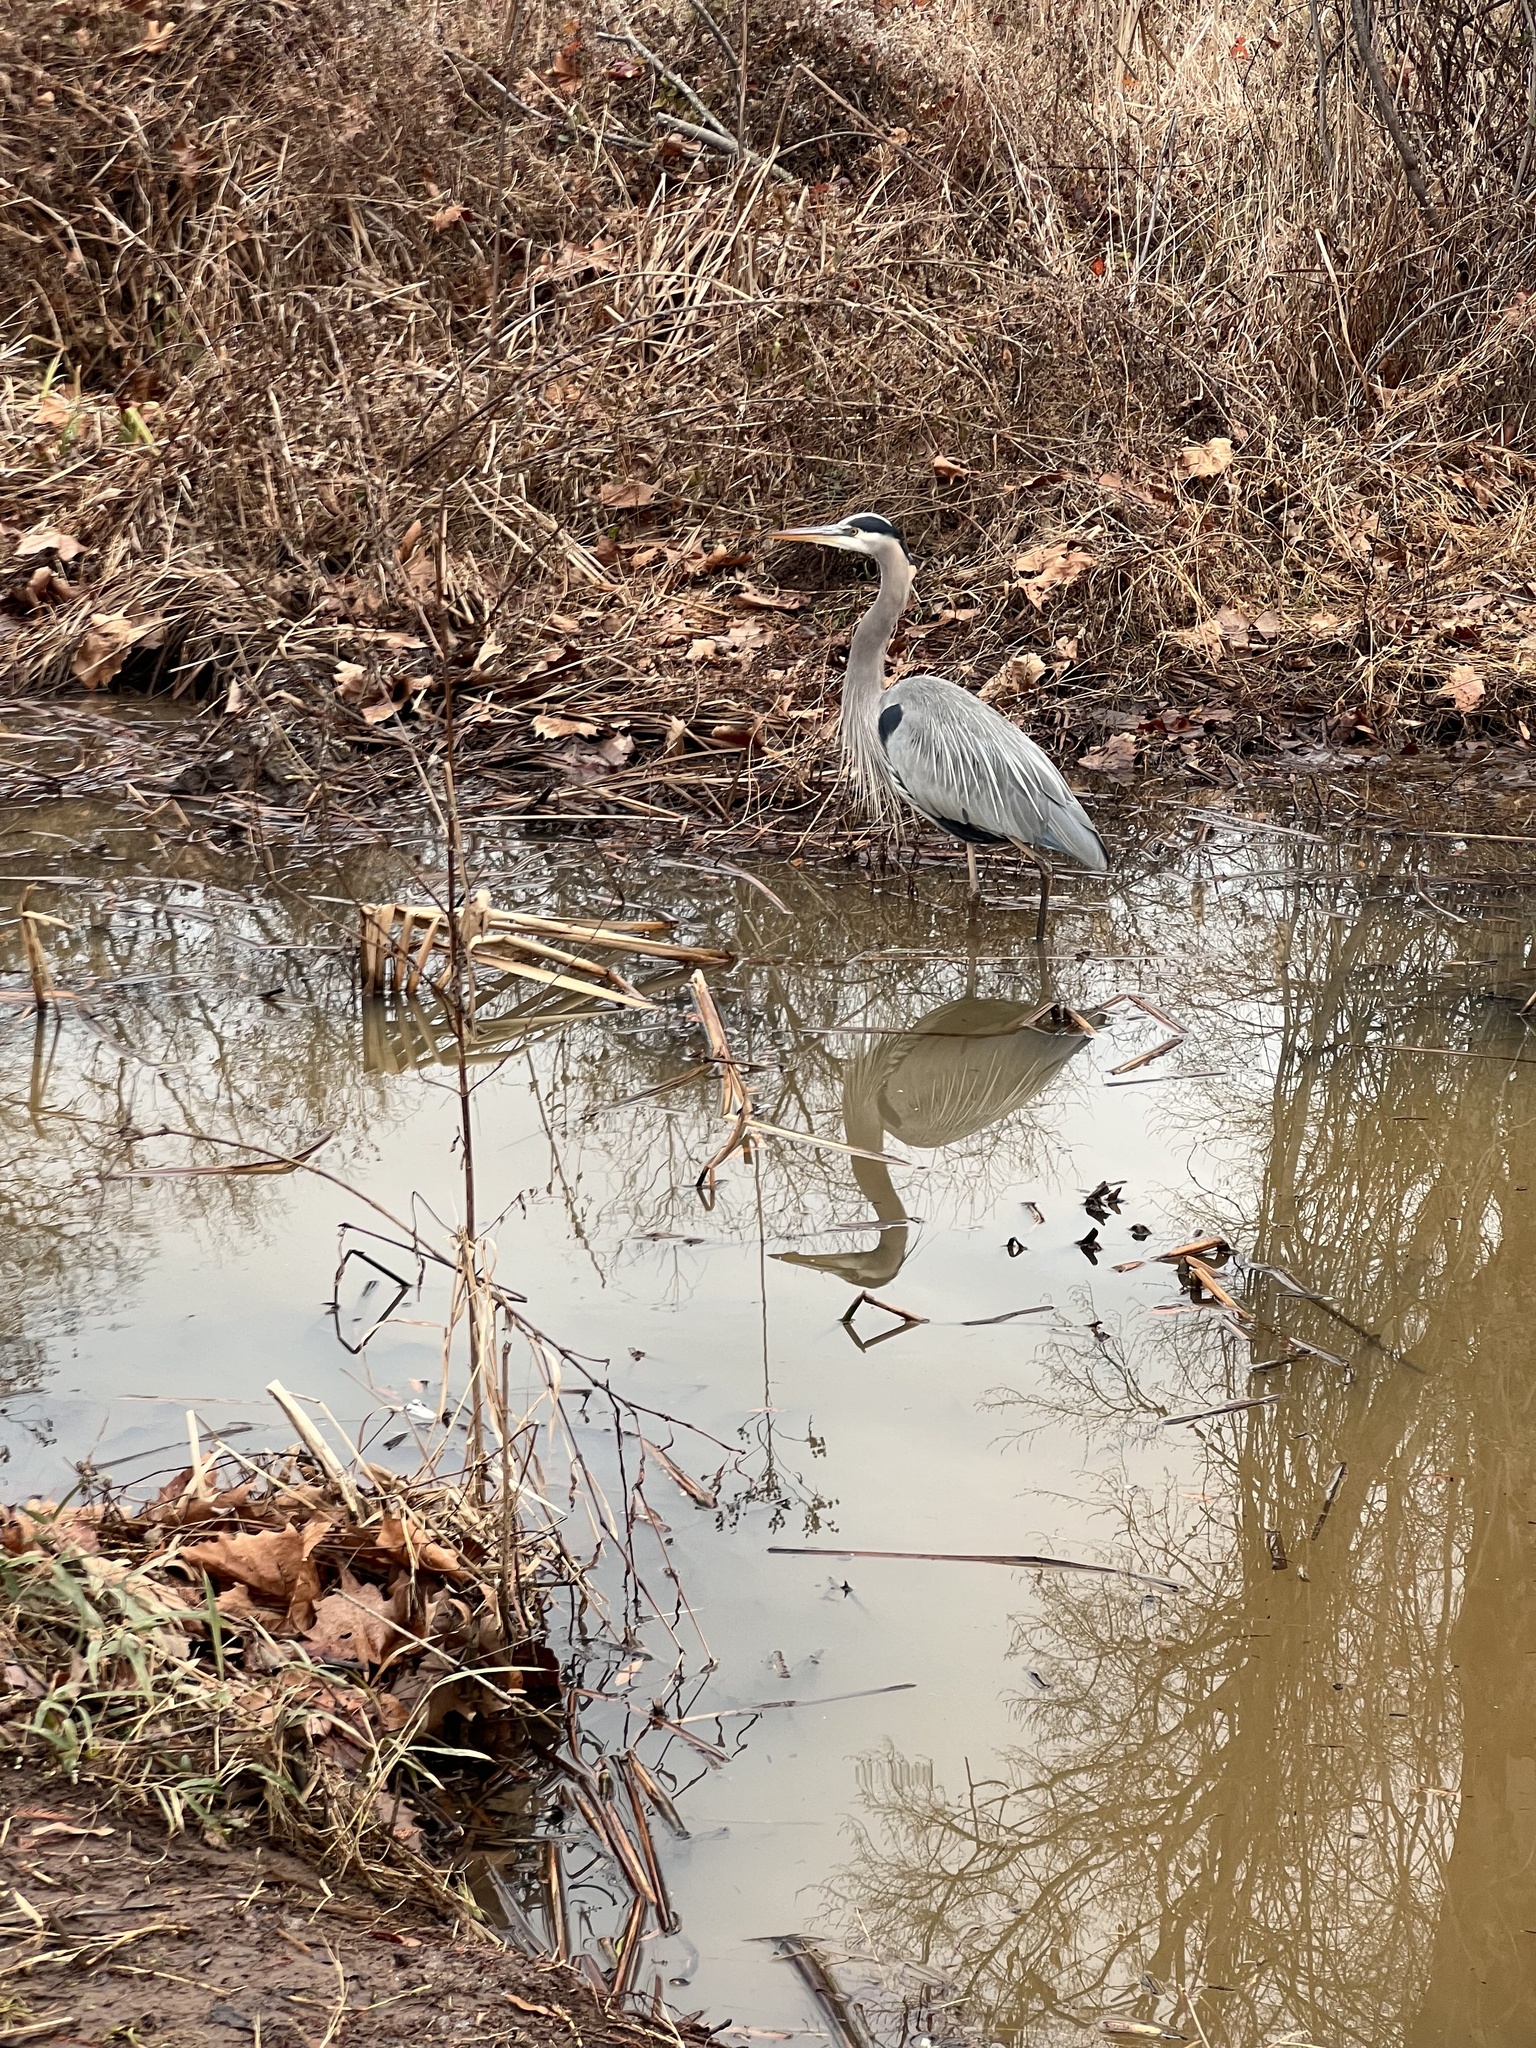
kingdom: Animalia
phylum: Chordata
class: Aves
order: Pelecaniformes
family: Ardeidae
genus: Ardea
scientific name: Ardea herodias
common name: Great blue heron
